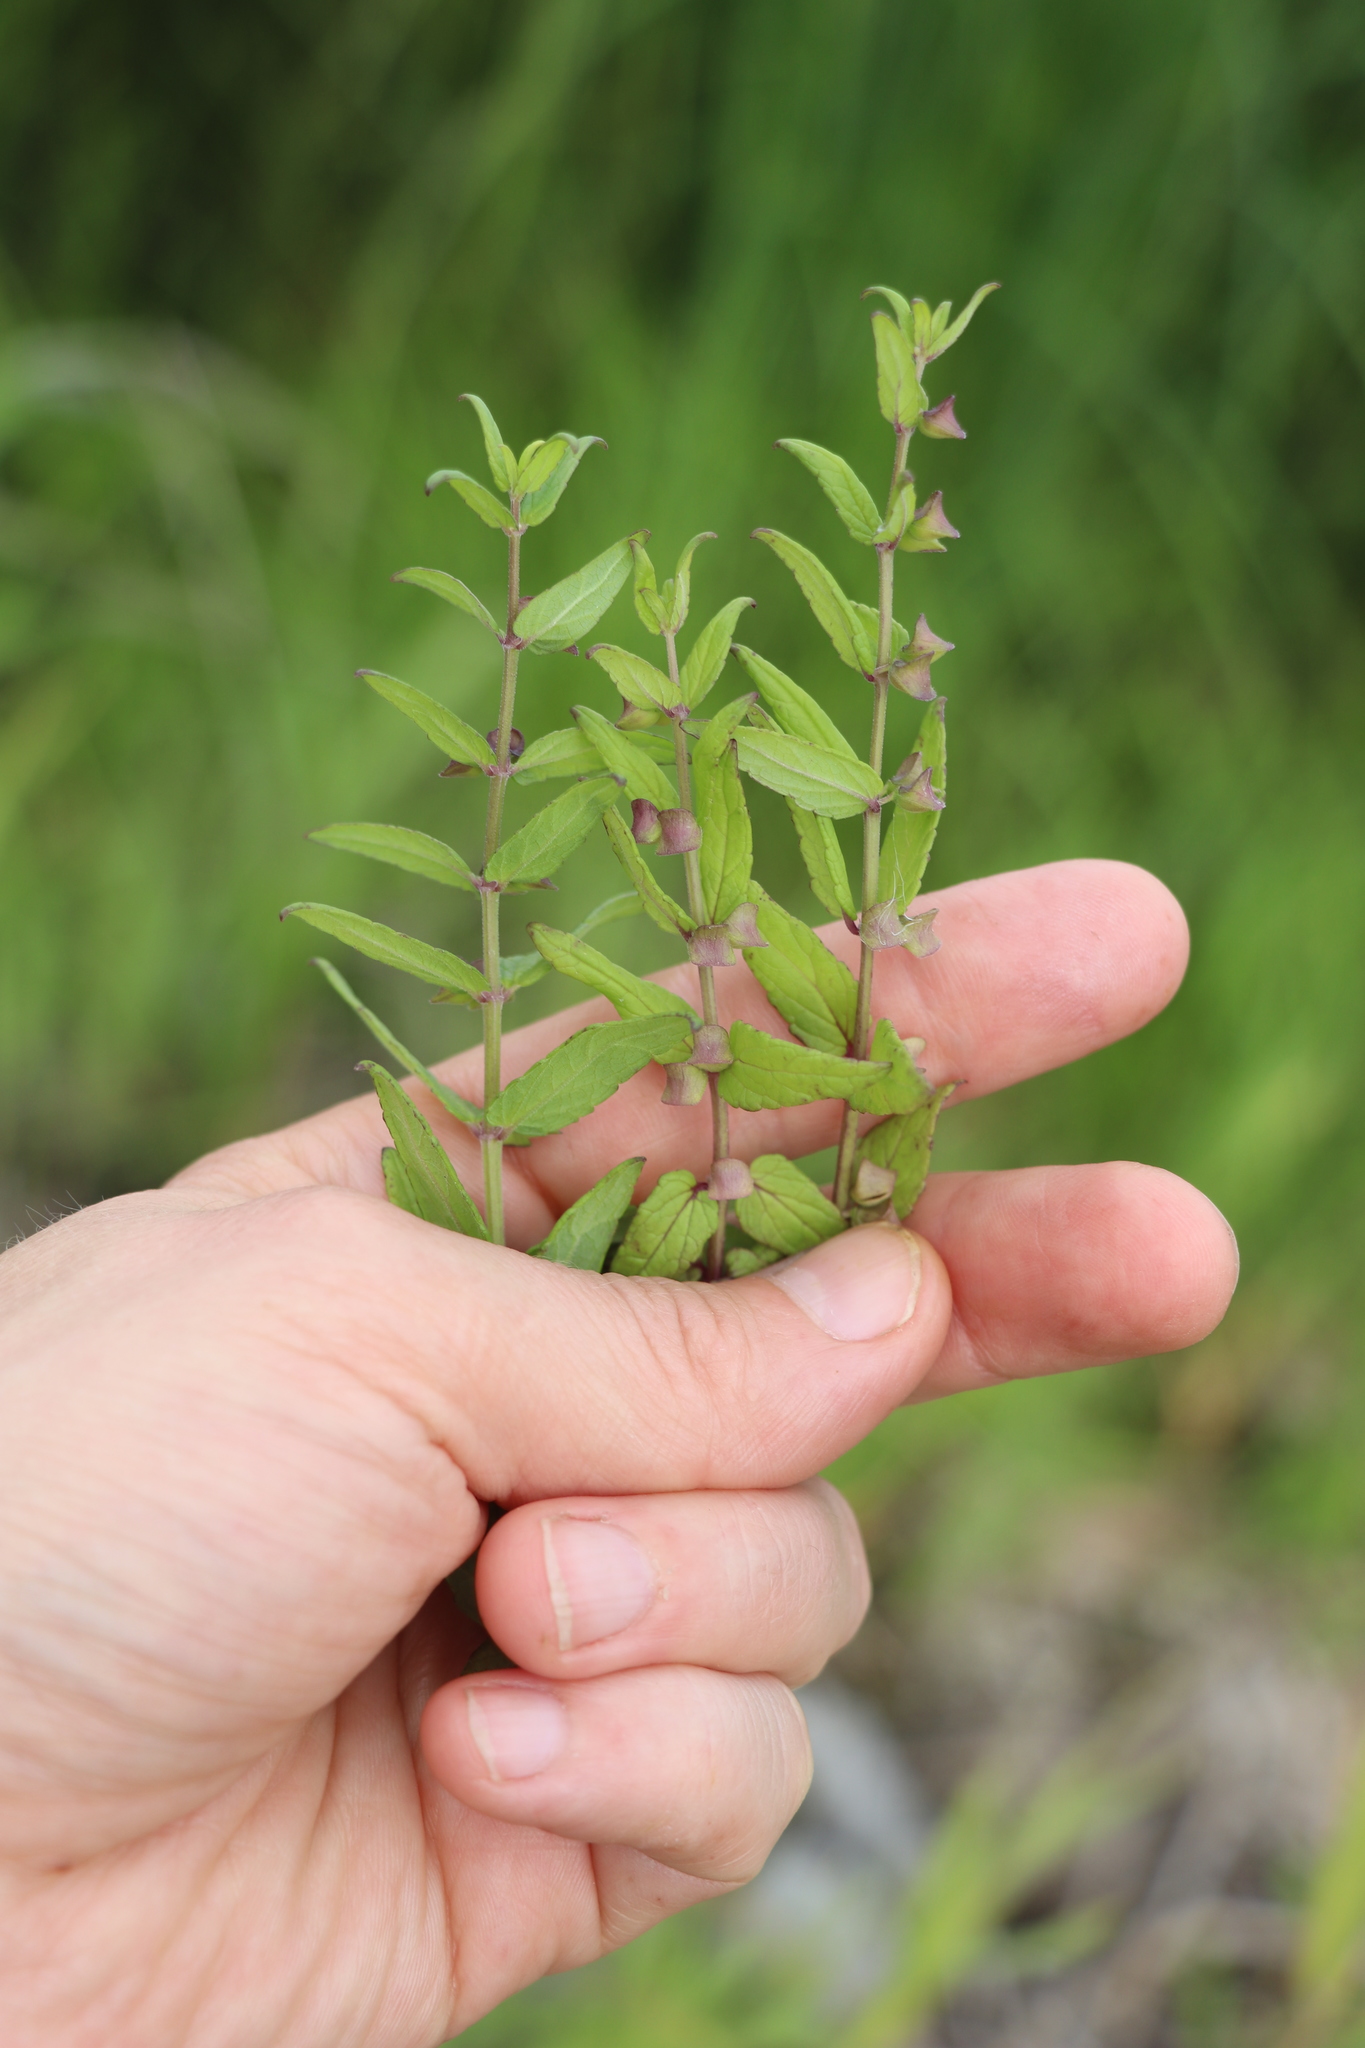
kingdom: Plantae
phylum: Tracheophyta
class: Magnoliopsida
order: Lamiales
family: Lamiaceae
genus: Scutellaria
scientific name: Scutellaria galericulata
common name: Skullcap
